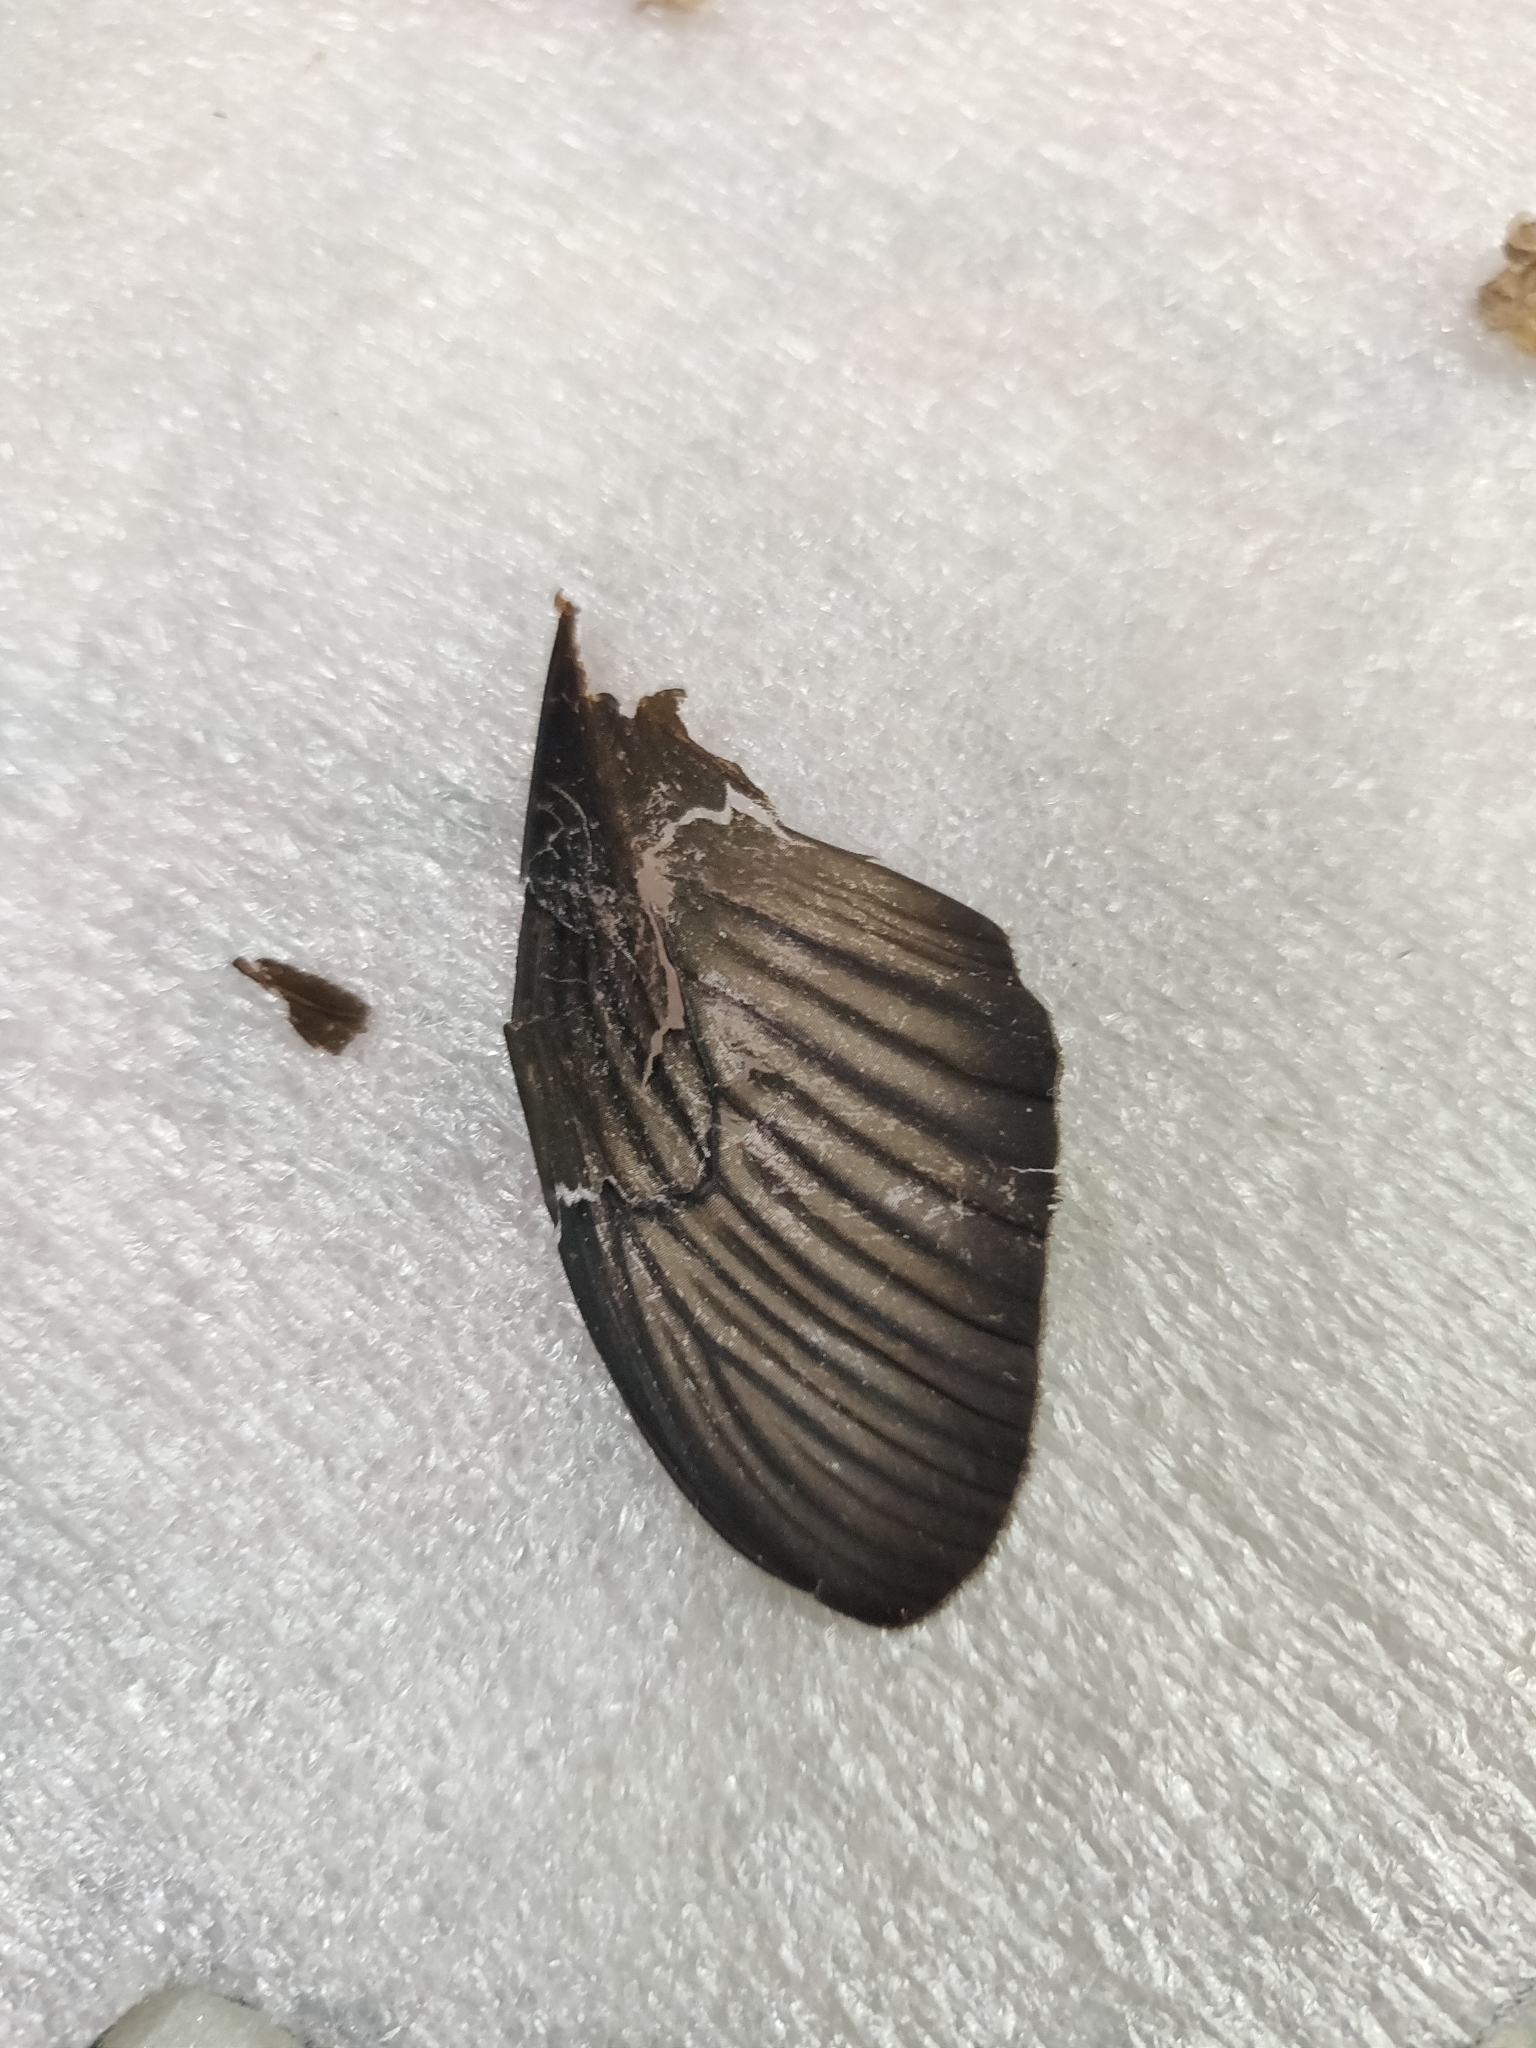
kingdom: Animalia
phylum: Arthropoda
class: Insecta
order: Lepidoptera
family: Papilionidae
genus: Pachliopta
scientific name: Pachliopta aristolochiae
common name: Common rose
